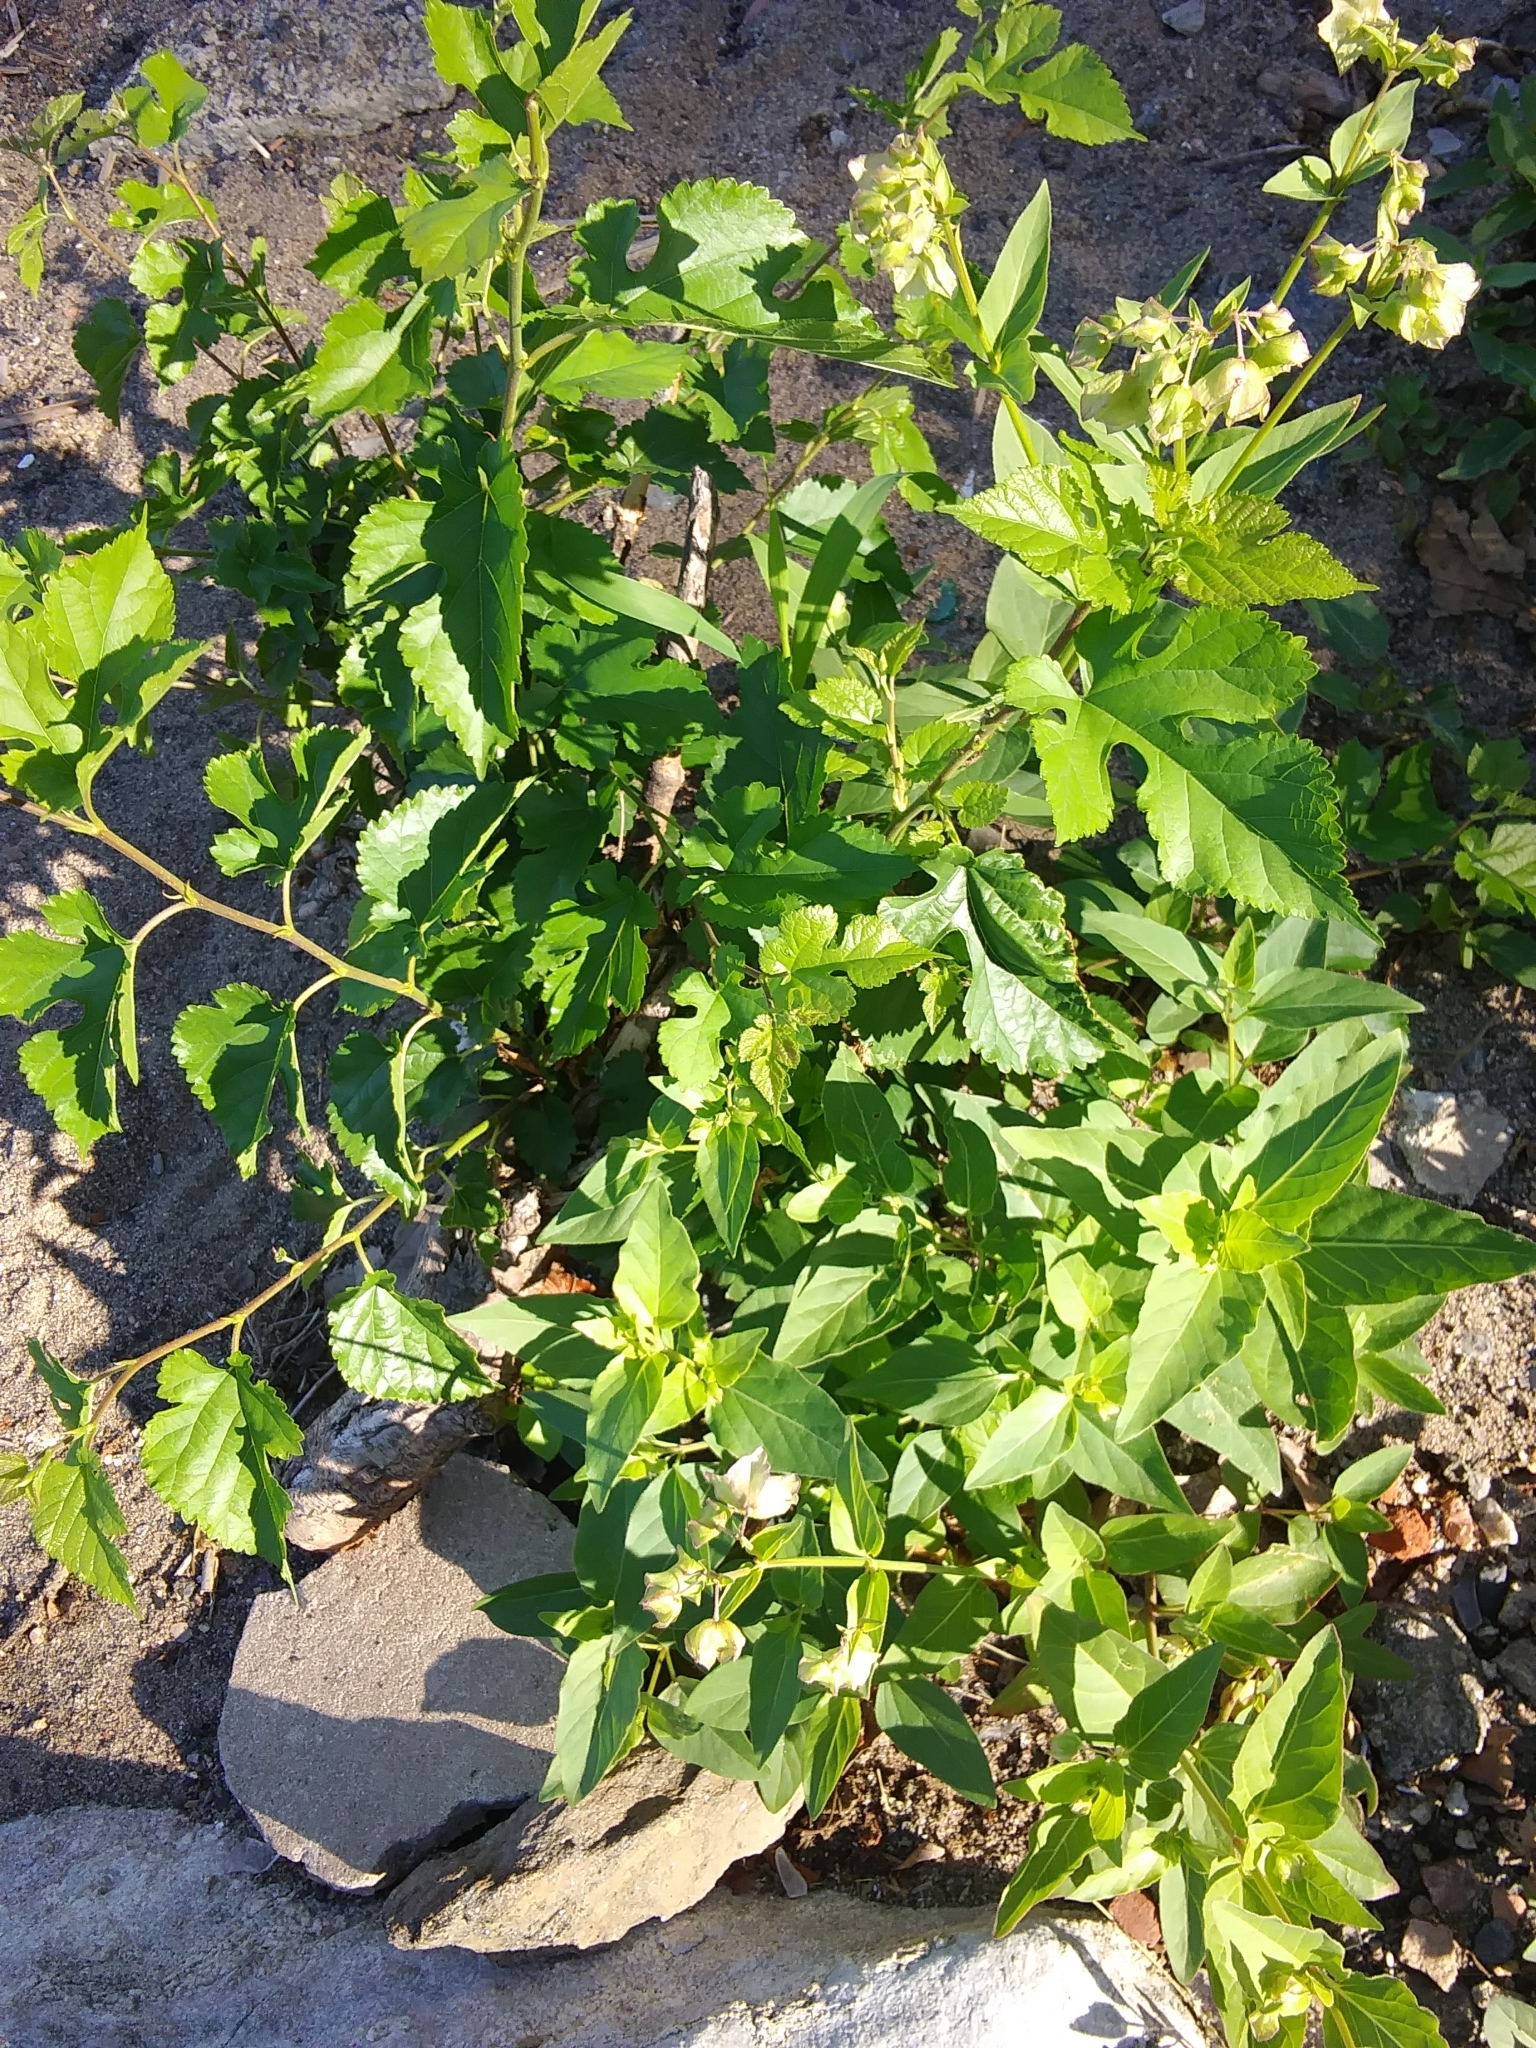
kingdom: Plantae
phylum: Tracheophyta
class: Magnoliopsida
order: Caryophyllales
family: Nyctaginaceae
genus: Mirabilis
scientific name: Mirabilis nyctaginea
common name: Umbrella wort
